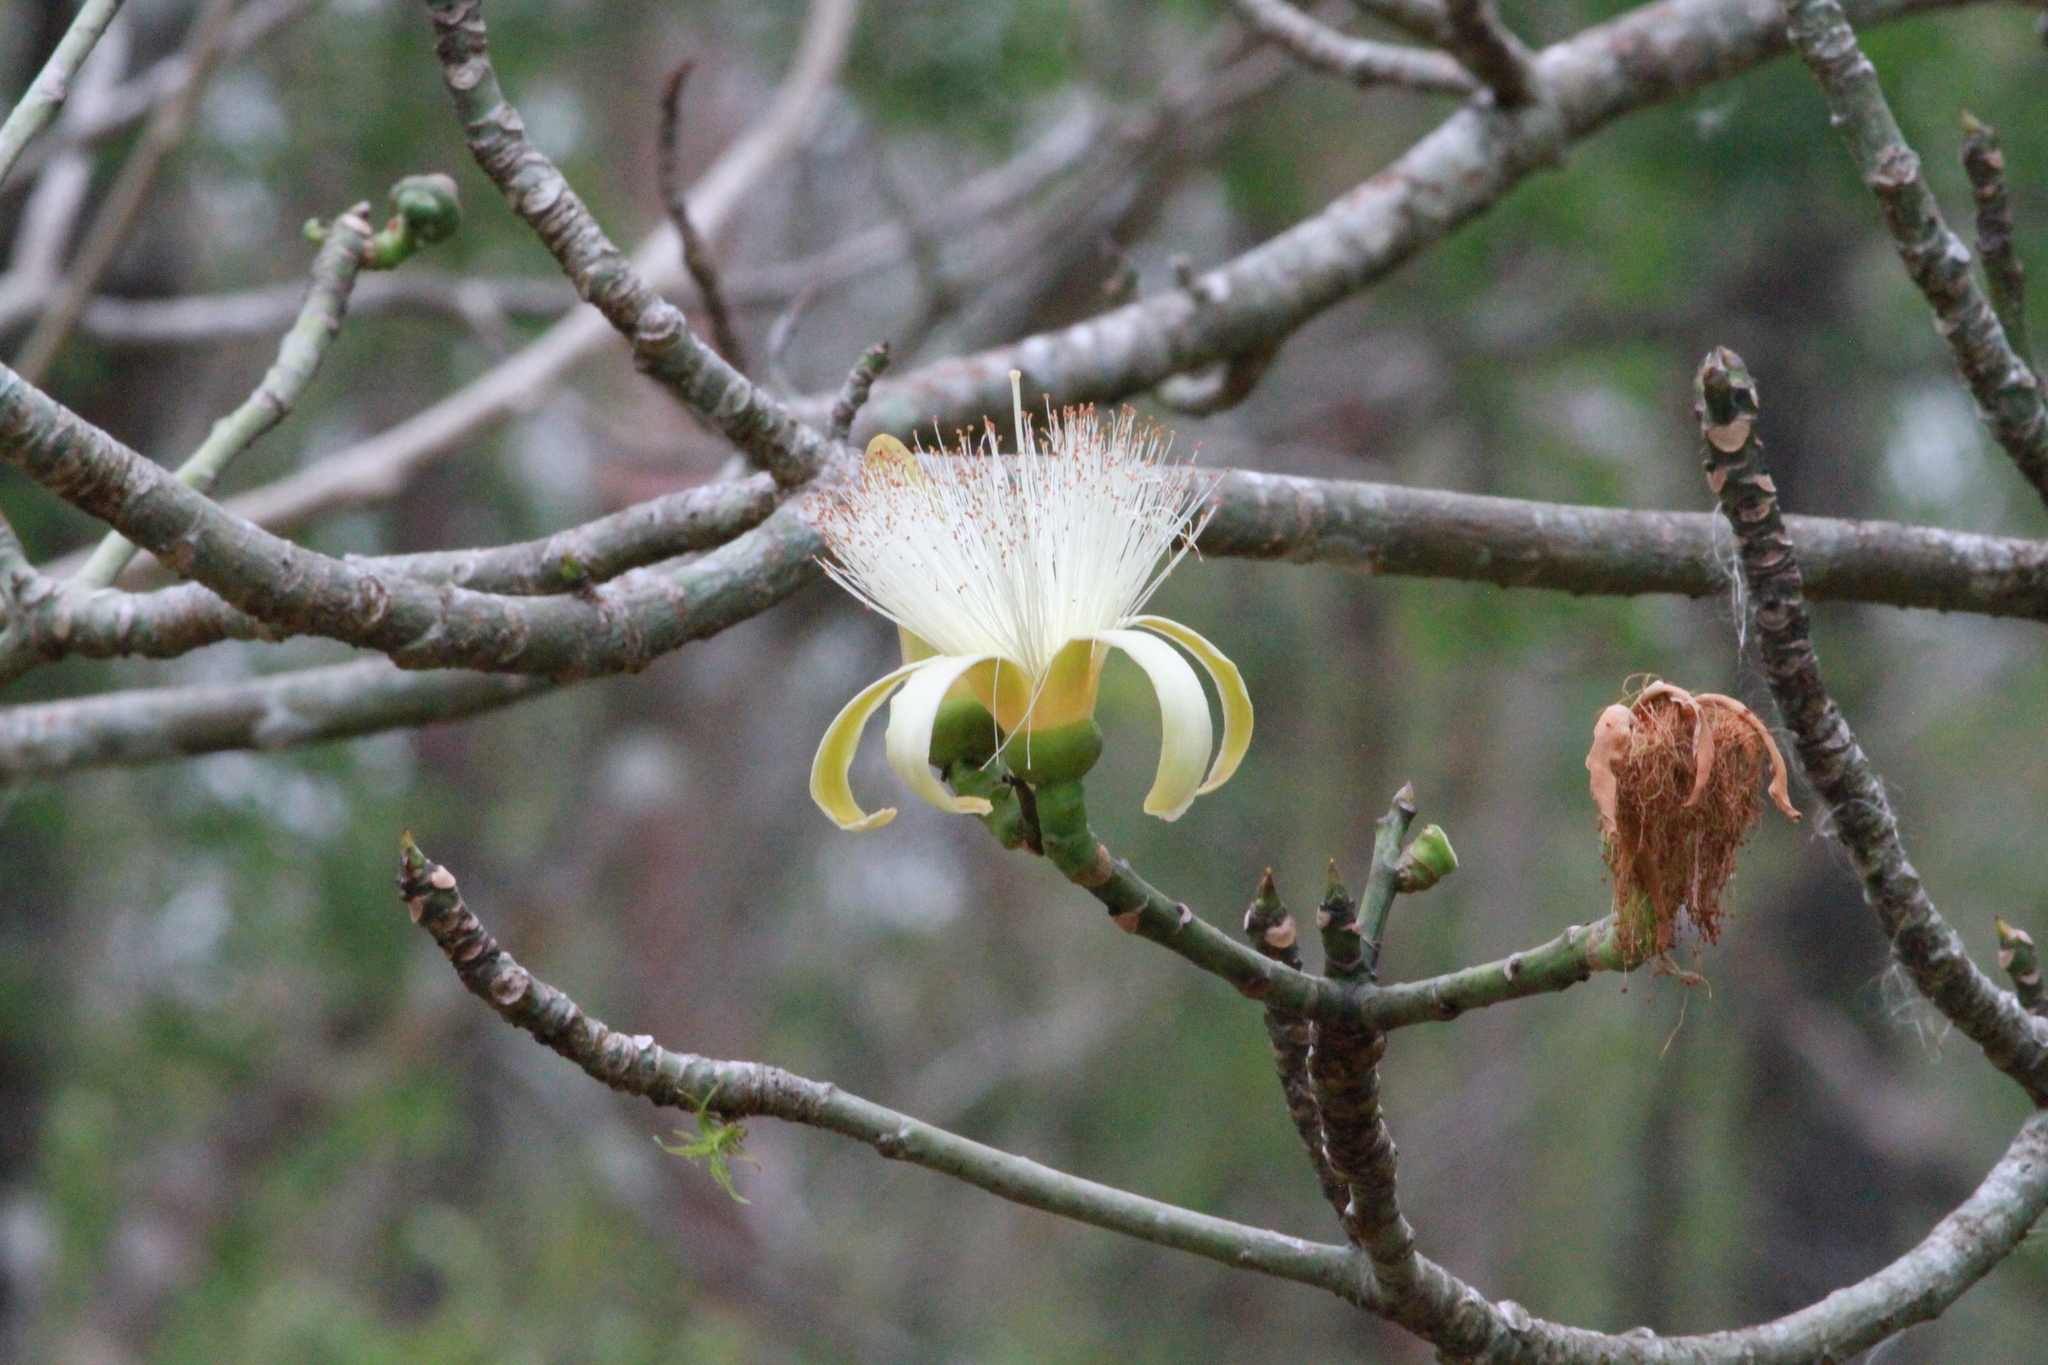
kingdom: Plantae
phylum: Tracheophyta
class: Magnoliopsida
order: Malvales
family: Malvaceae
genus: Pseudobombax
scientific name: Pseudobombax ellipticum
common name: Shaving-brush-tree
